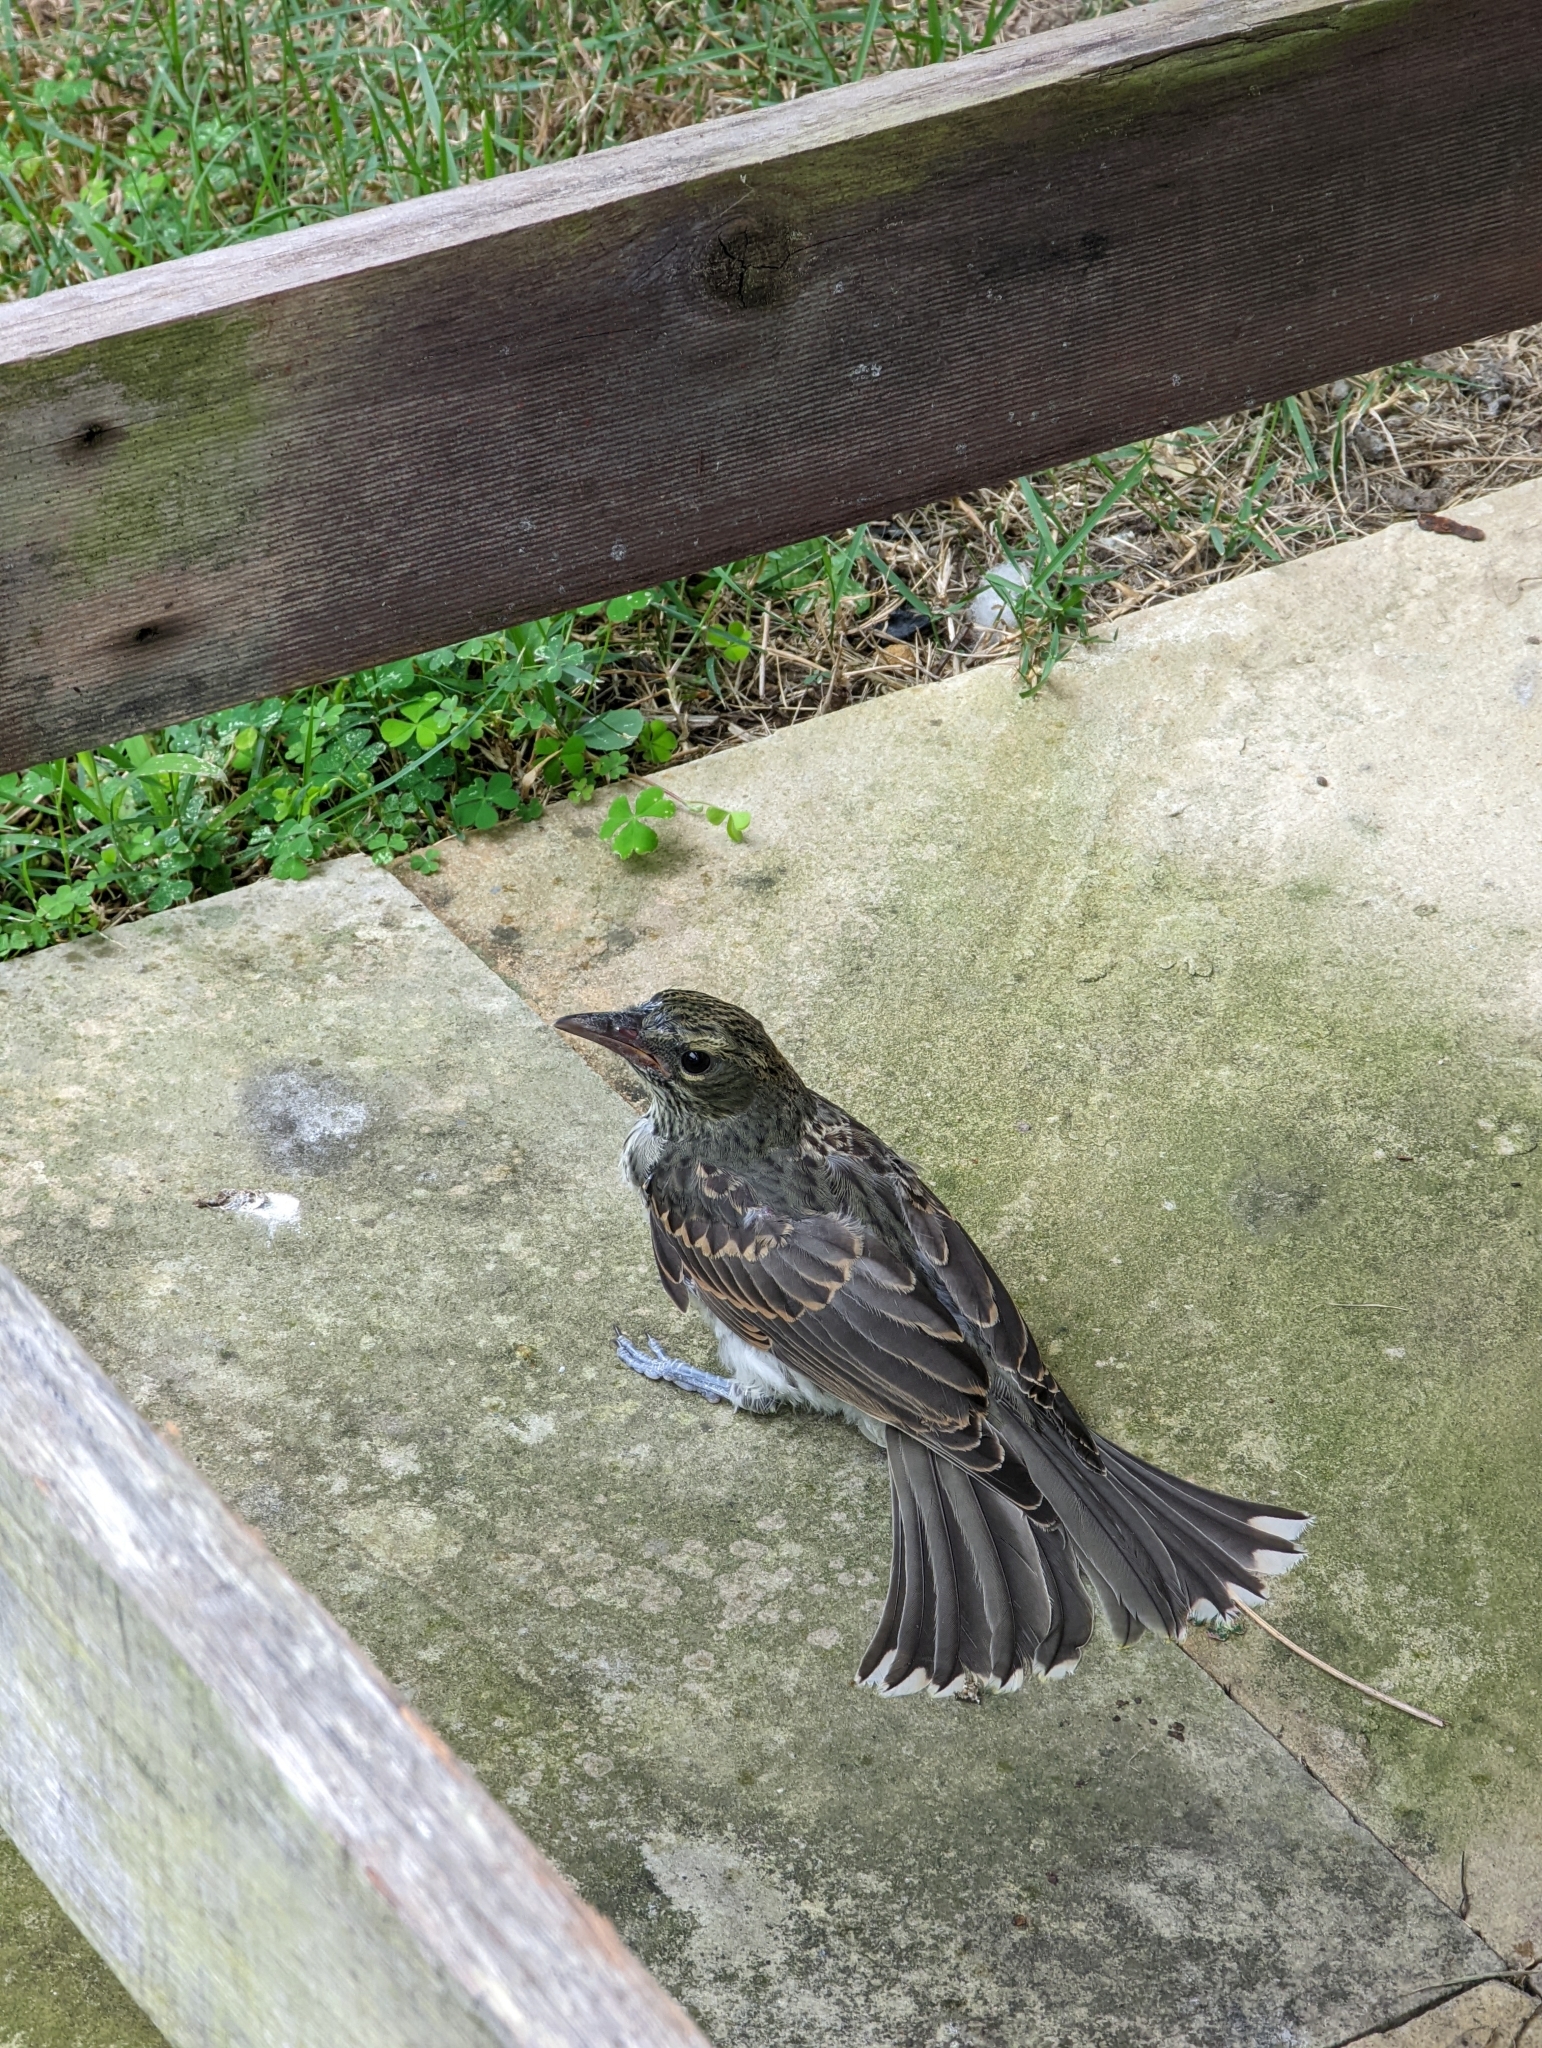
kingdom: Animalia
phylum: Chordata
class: Aves
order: Passeriformes
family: Oriolidae
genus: Sphecotheres
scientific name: Sphecotheres vieilloti
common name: Australasian figbird
